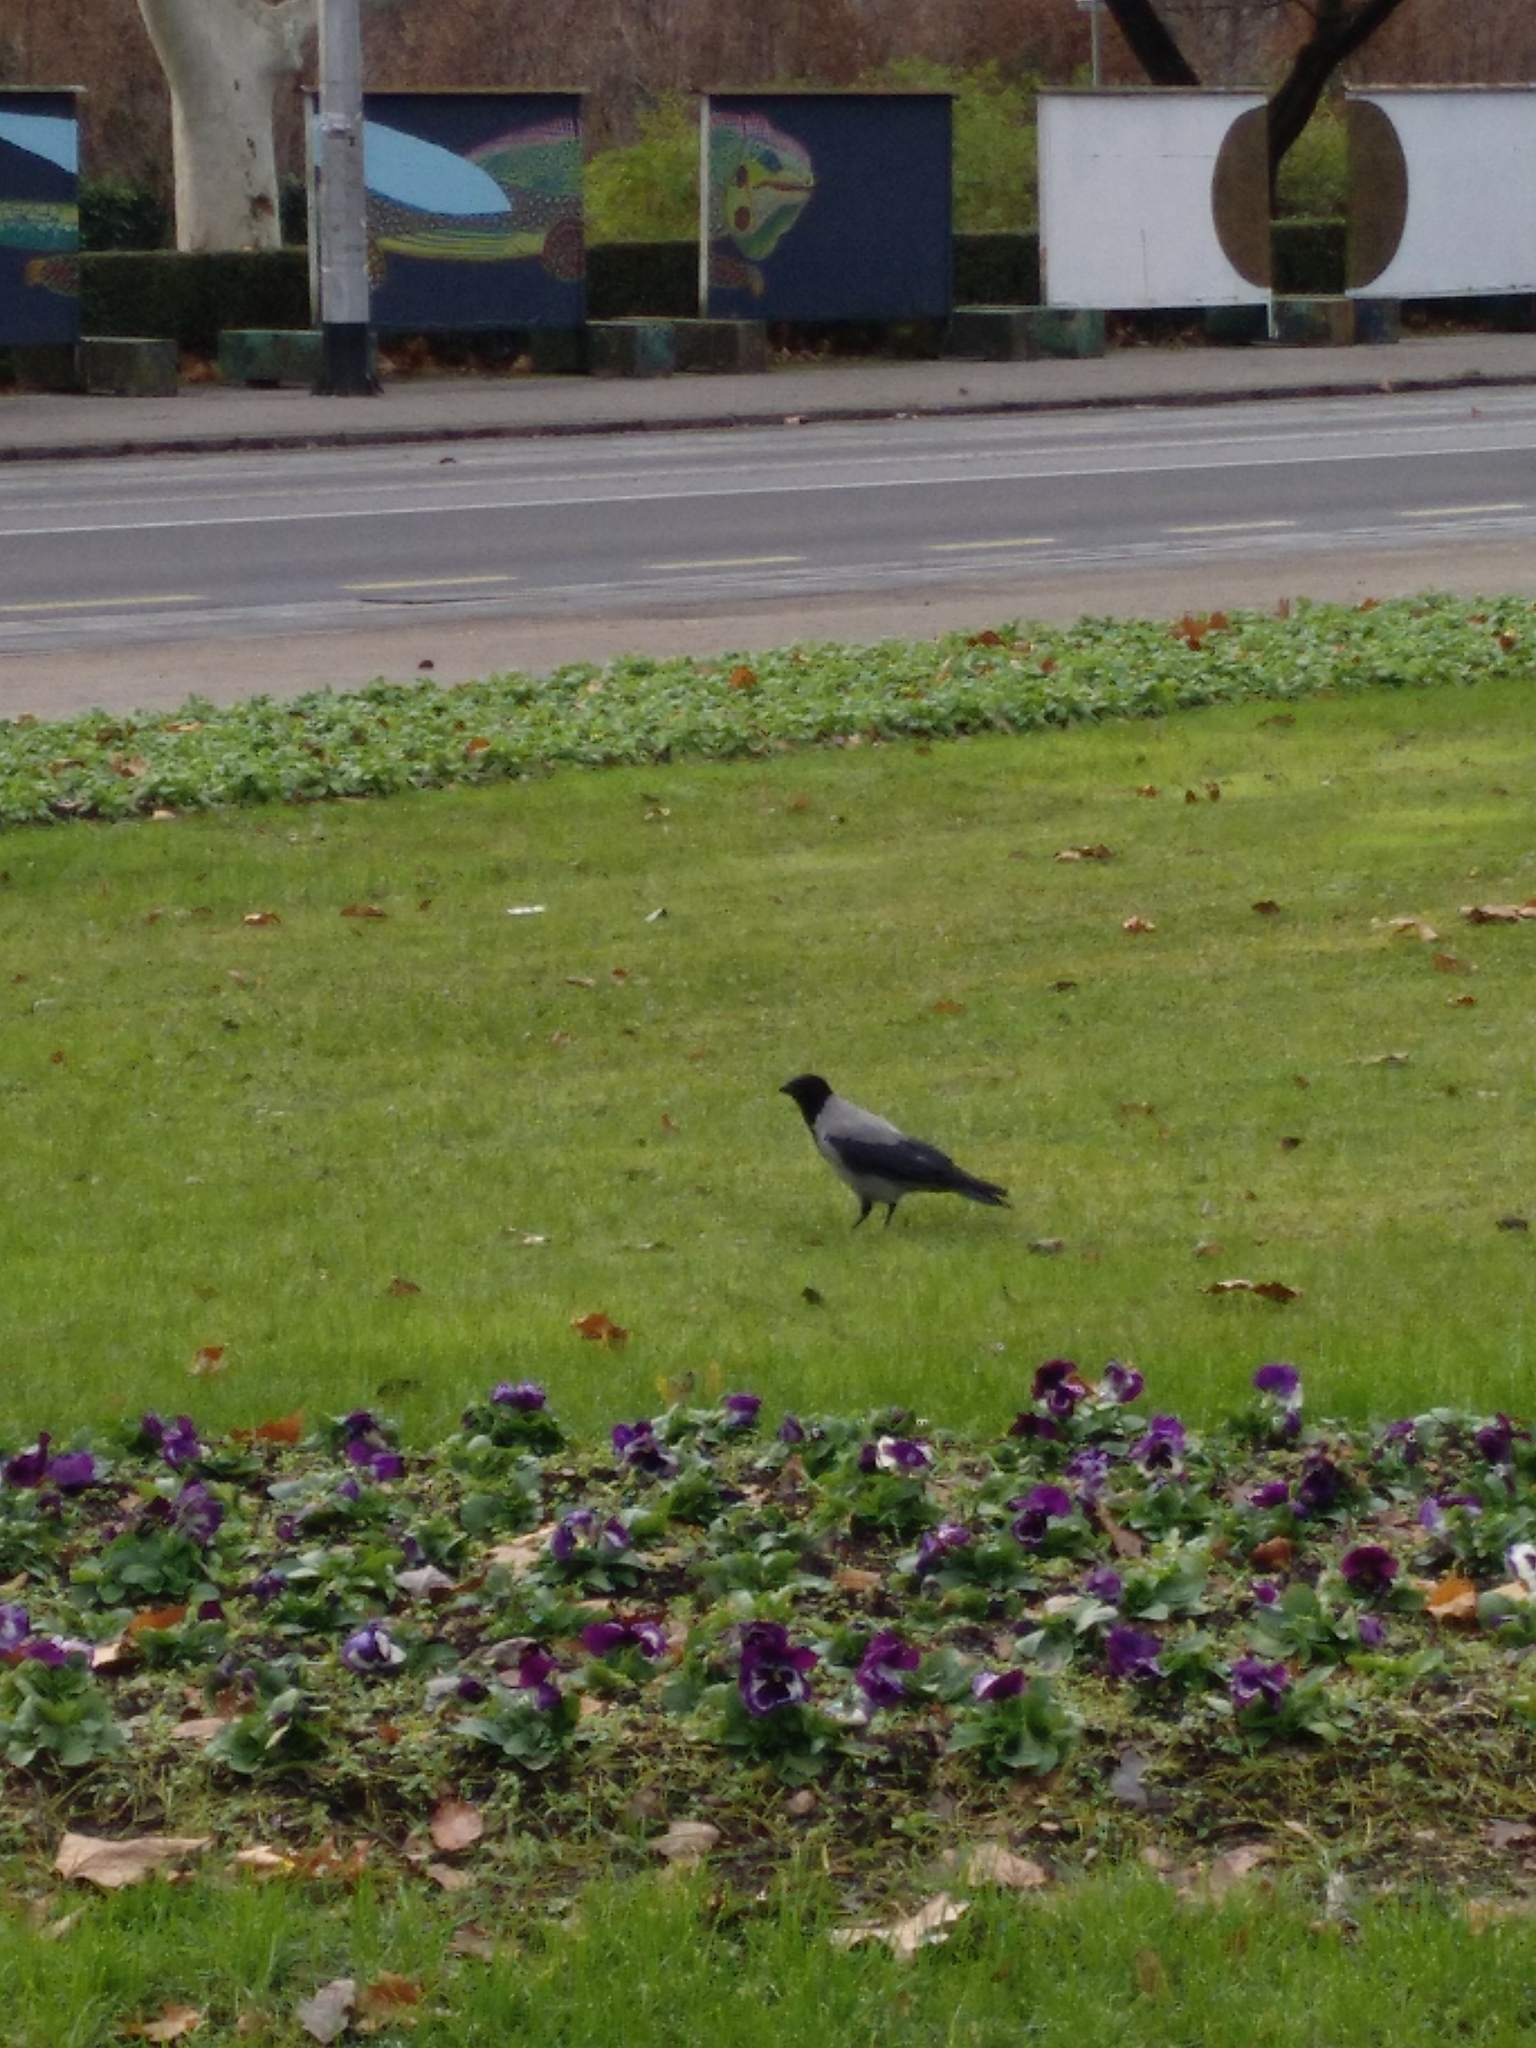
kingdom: Animalia
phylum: Chordata
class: Aves
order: Passeriformes
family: Corvidae
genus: Corvus
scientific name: Corvus cornix
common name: Hooded crow
